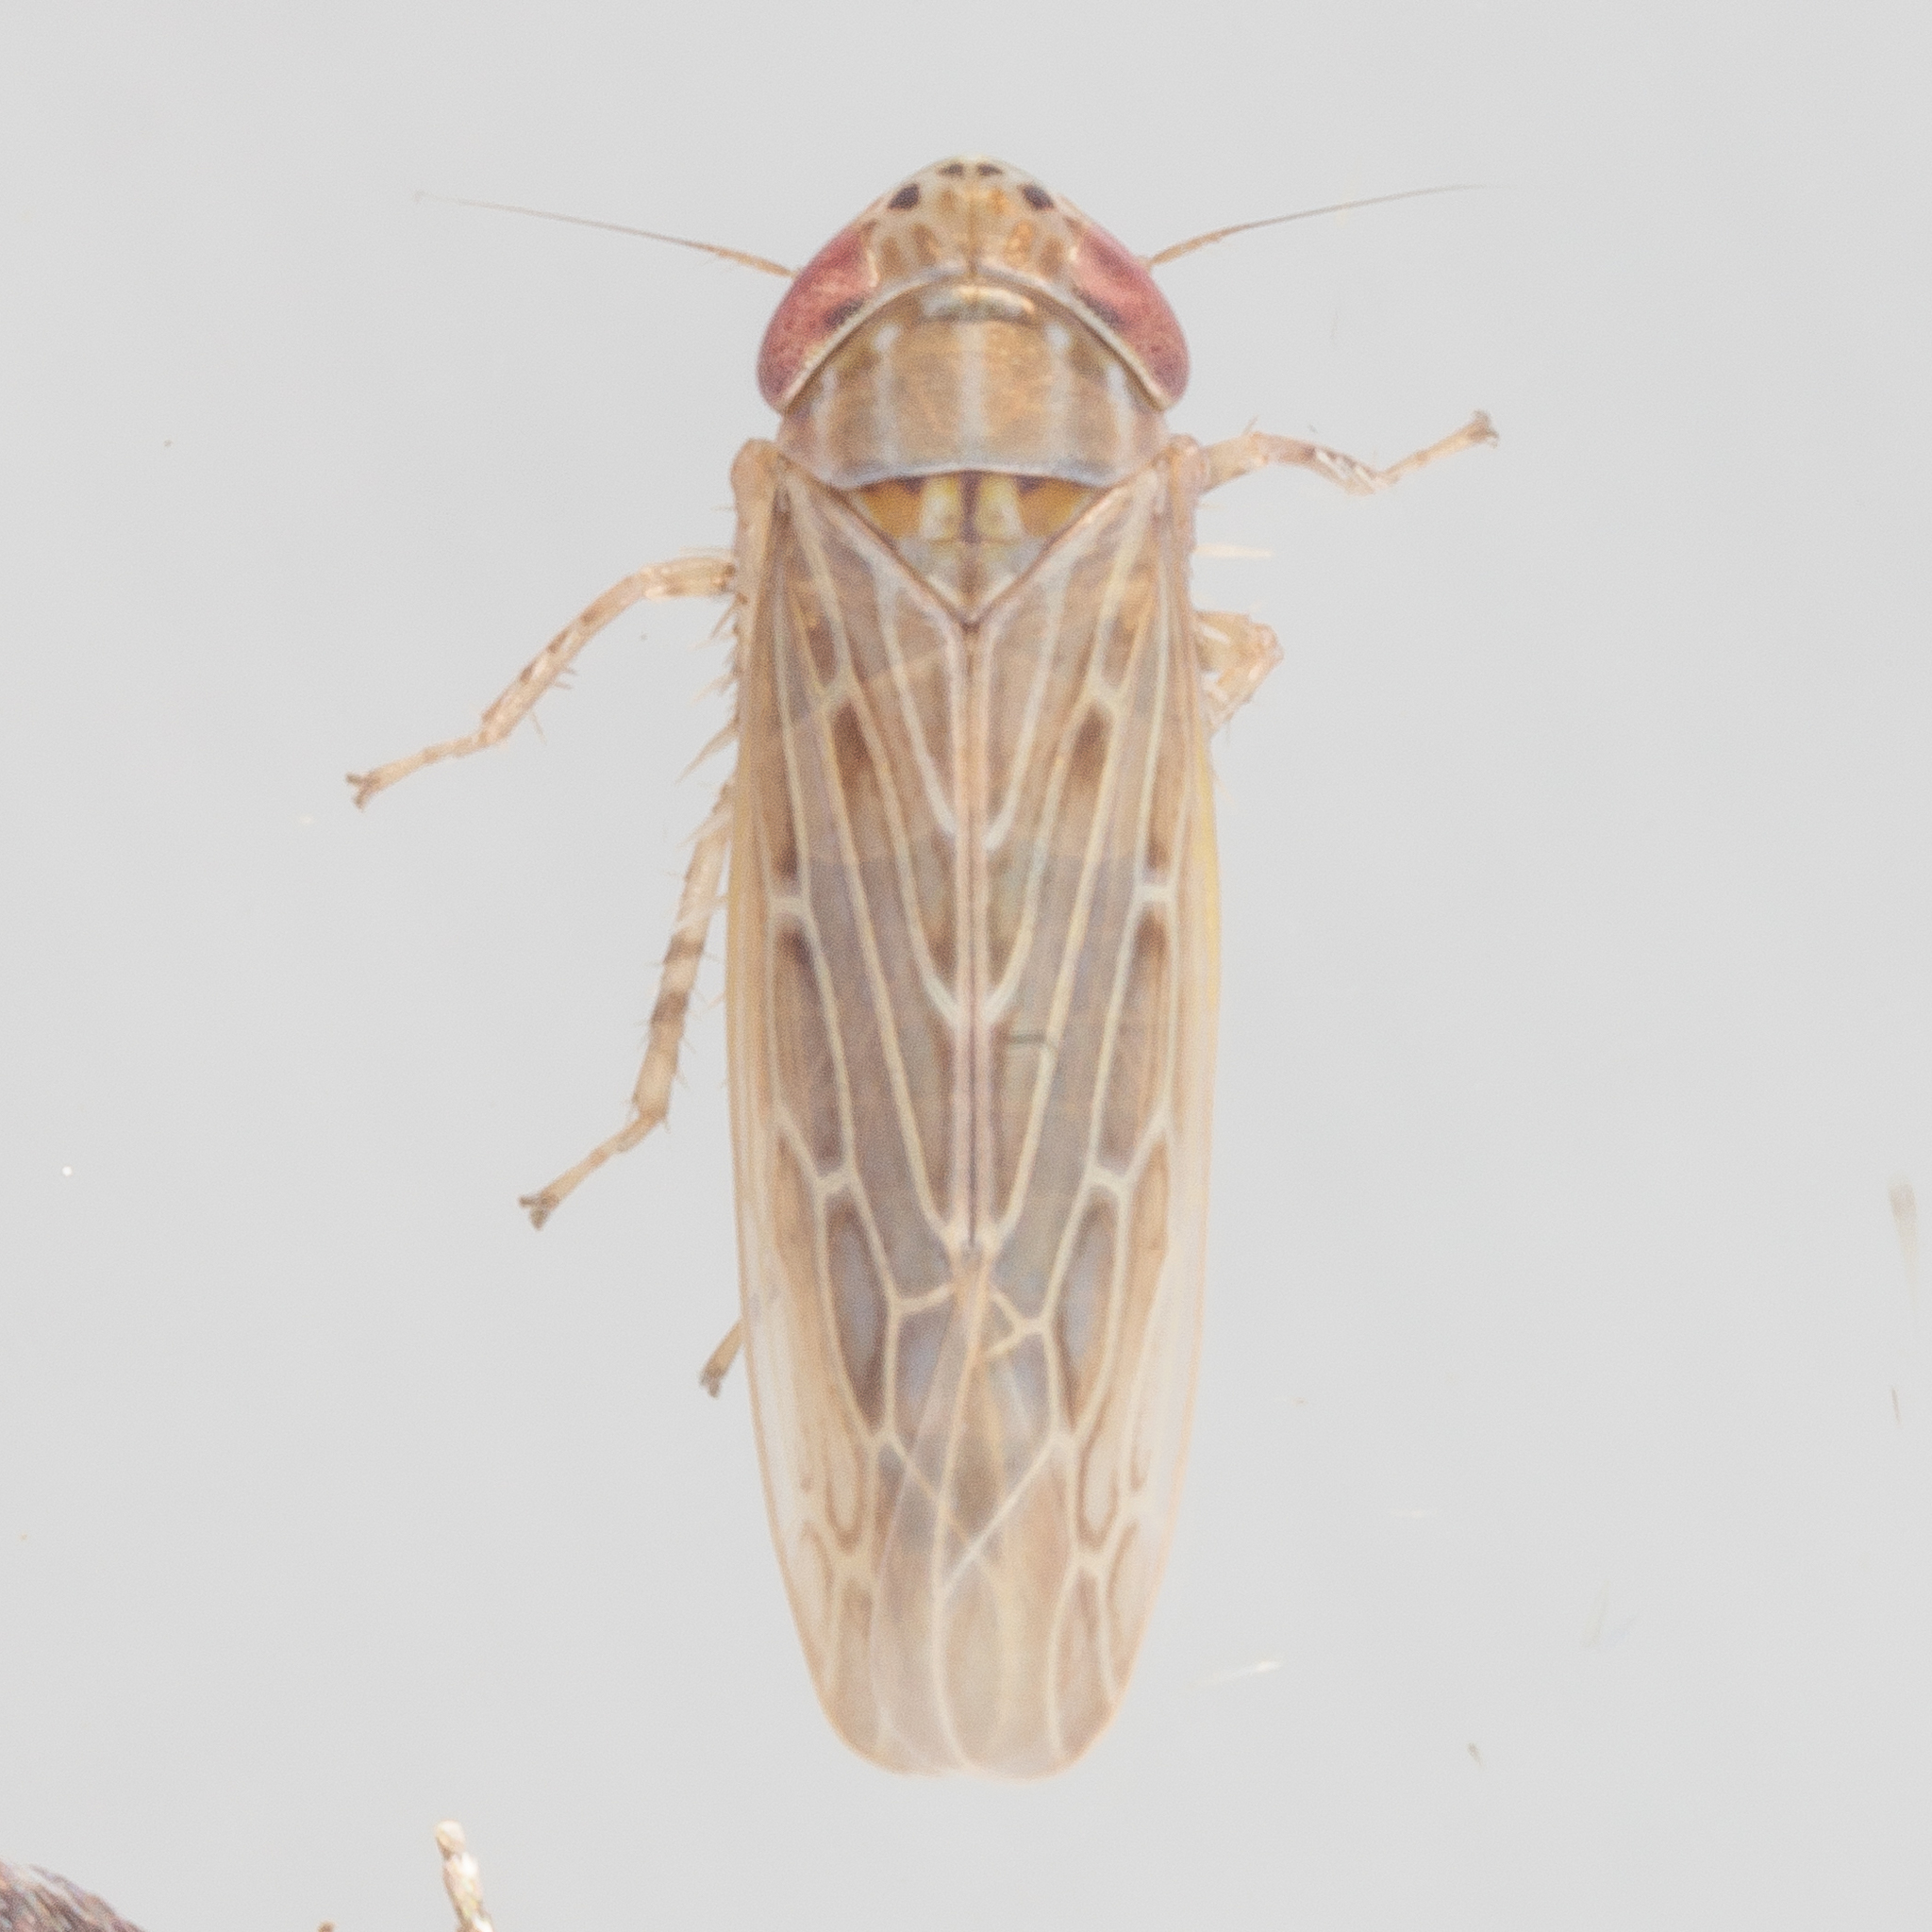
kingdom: Animalia
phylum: Arthropoda
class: Insecta
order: Hemiptera
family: Cicadellidae
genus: Graminella
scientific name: Graminella sonora
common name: Lesser lawn leafhopper
